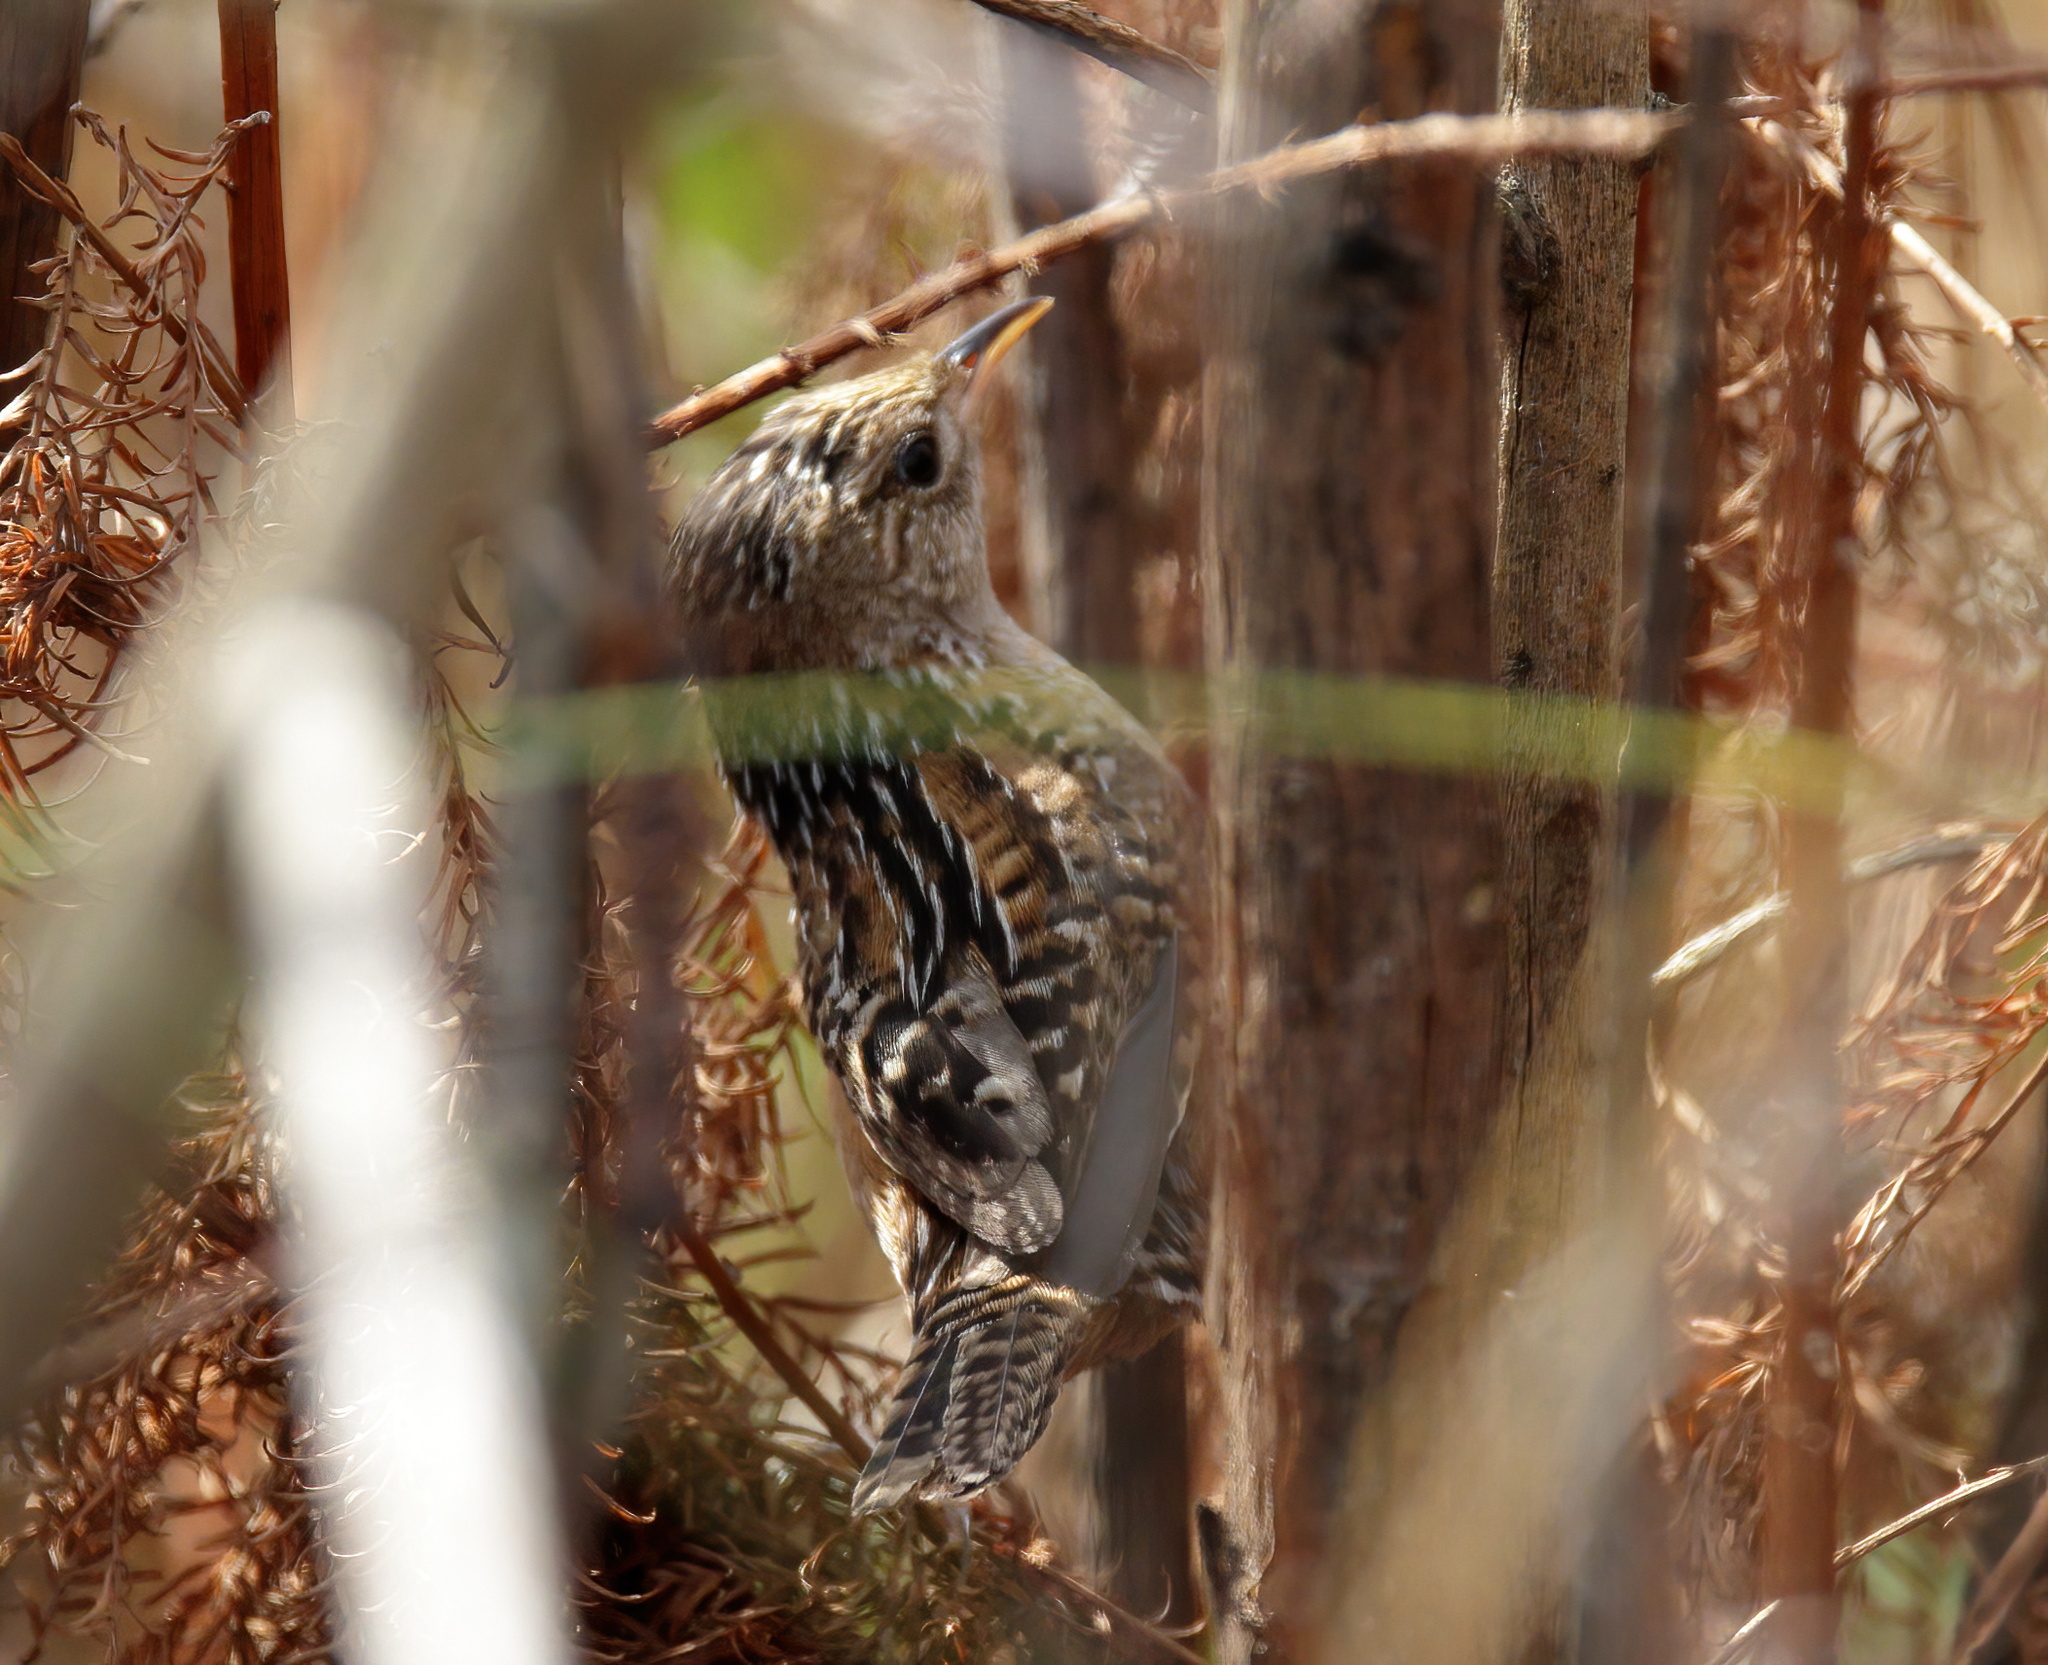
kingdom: Animalia
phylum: Chordata
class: Aves
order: Passeriformes
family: Troglodytidae
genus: Cistothorus
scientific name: Cistothorus platensis
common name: Sedge wren
